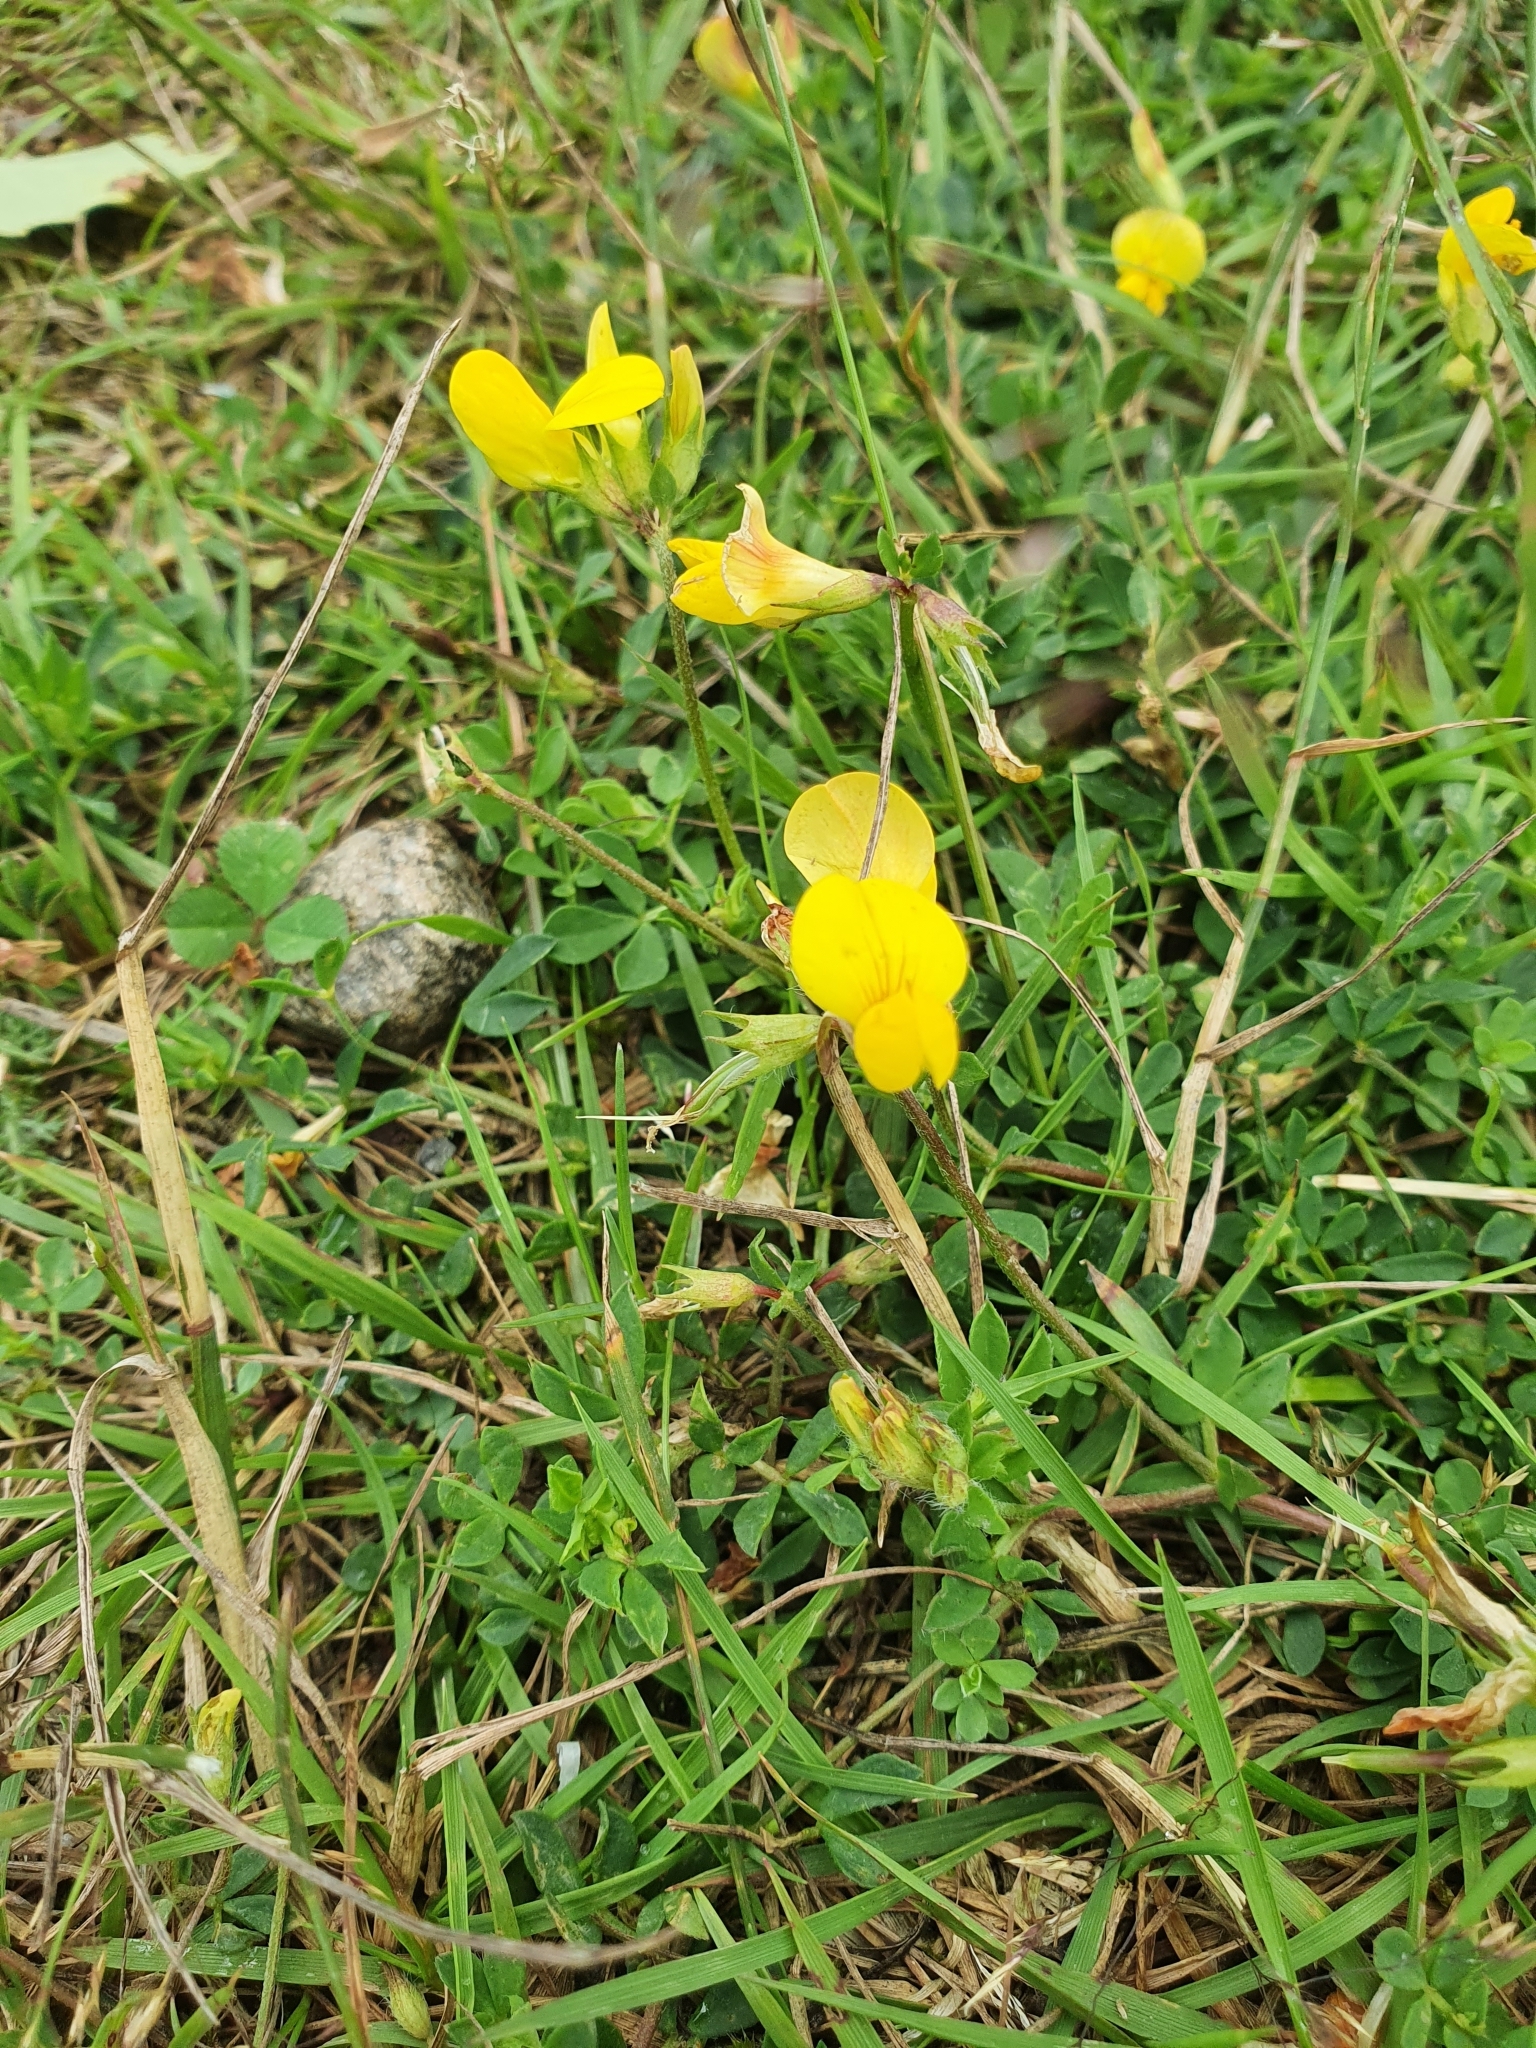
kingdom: Plantae
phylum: Tracheophyta
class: Magnoliopsida
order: Fabales
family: Fabaceae
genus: Lotus
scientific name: Lotus corniculatus
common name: Common bird's-foot-trefoil
